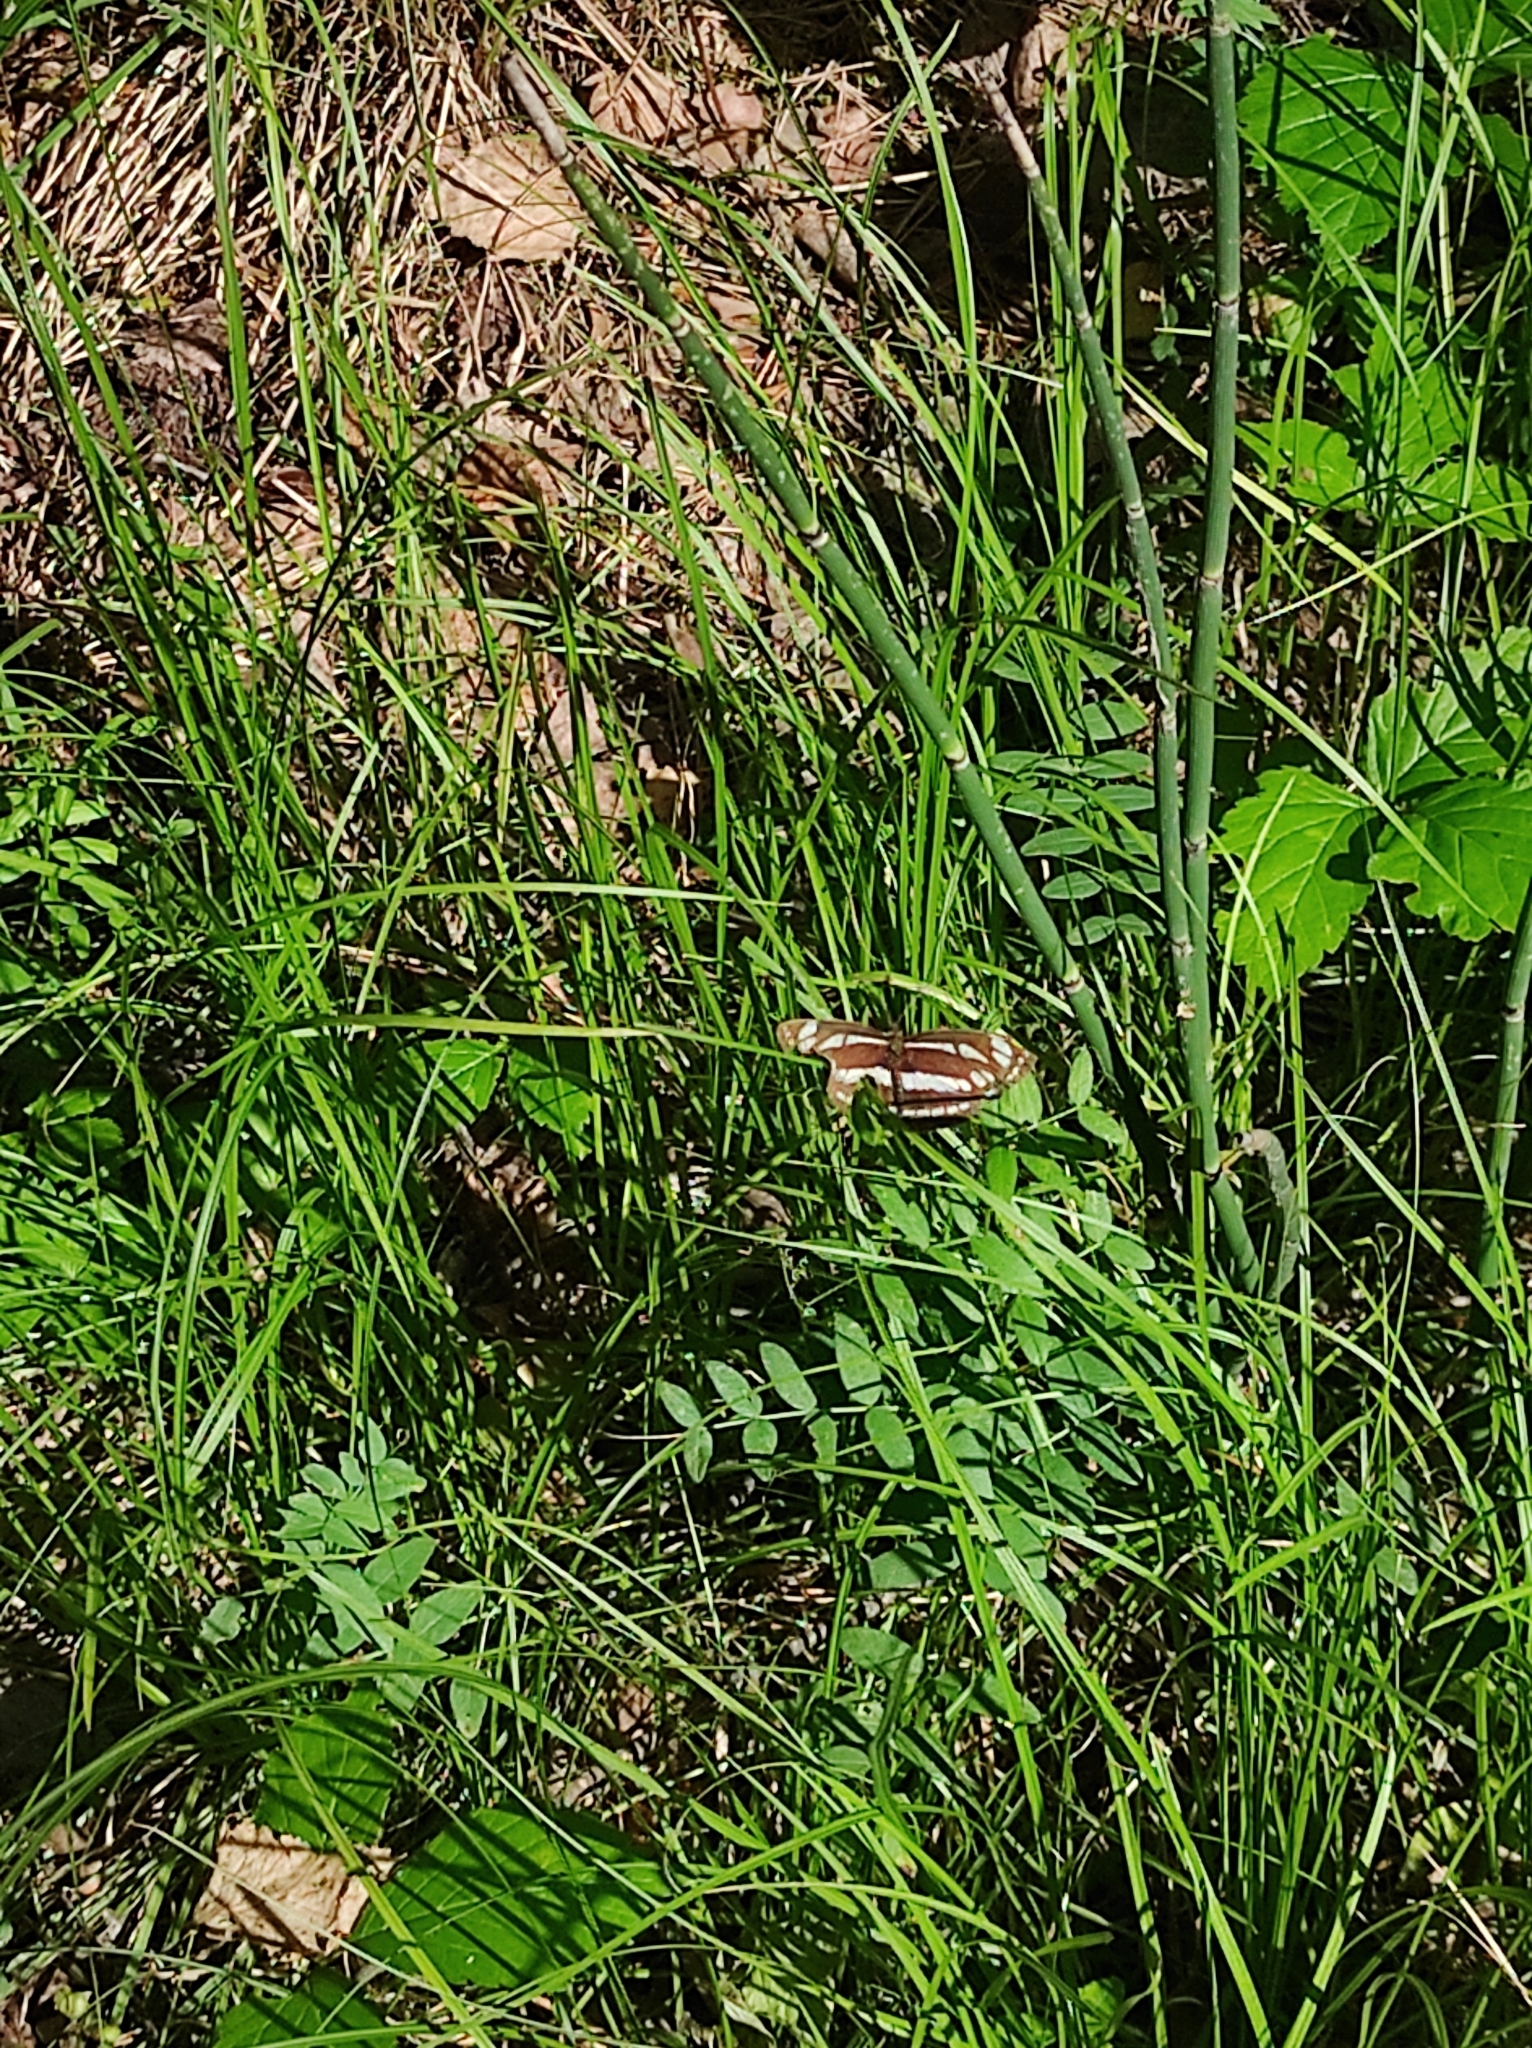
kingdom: Animalia
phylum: Arthropoda
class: Insecta
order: Lepidoptera
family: Nymphalidae
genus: Neptis
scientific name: Neptis sappho
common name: Common glider
